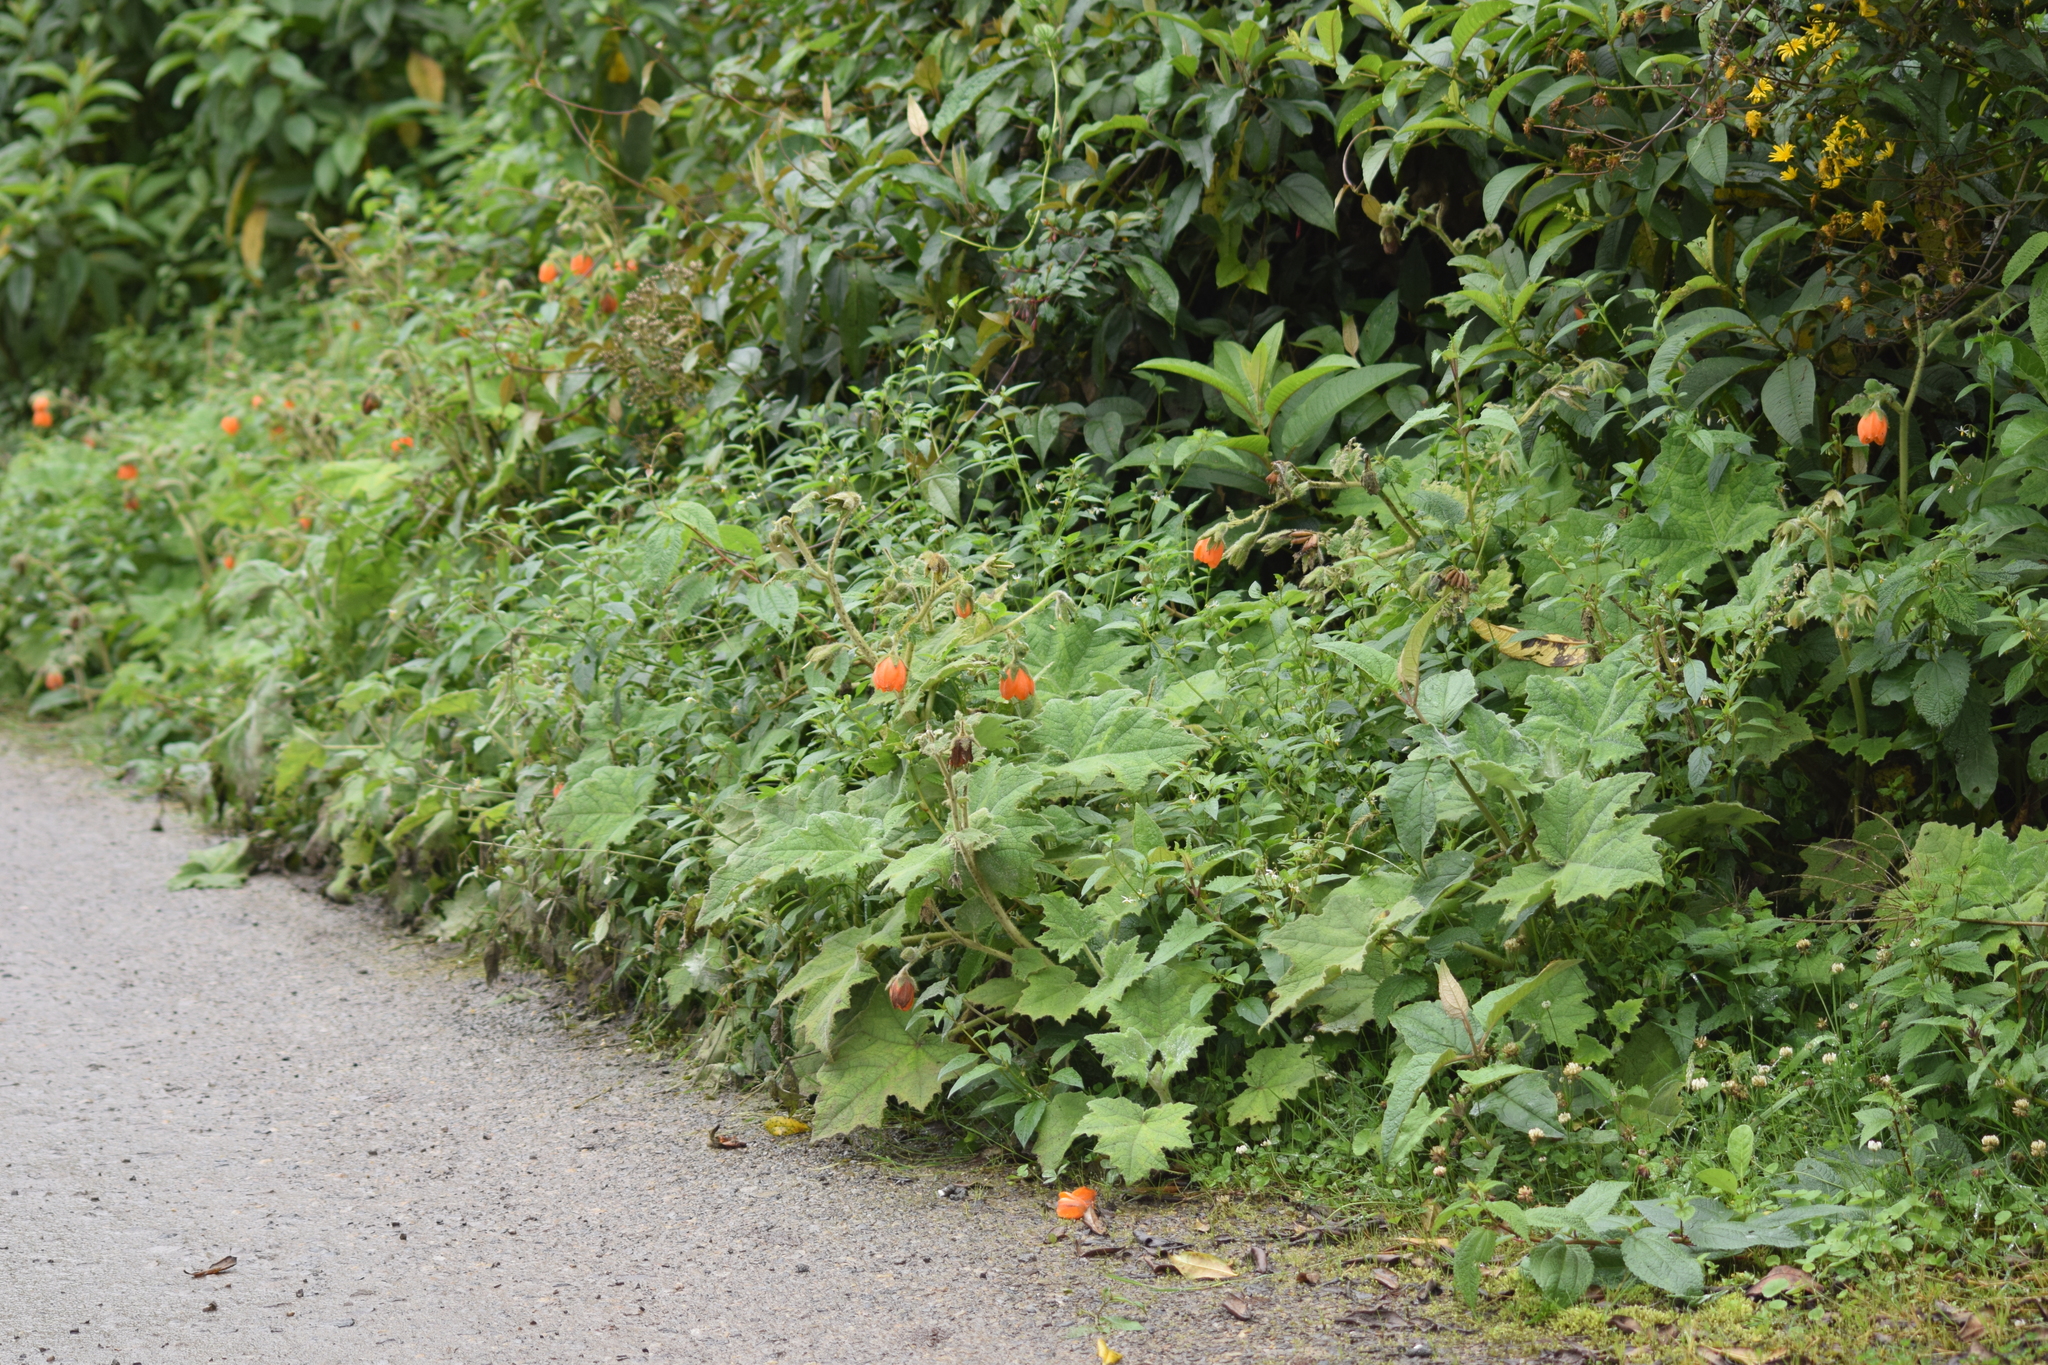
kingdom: Plantae
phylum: Tracheophyta
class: Magnoliopsida
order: Cornales
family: Loasaceae
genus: Nasa
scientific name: Nasa argemonoides
